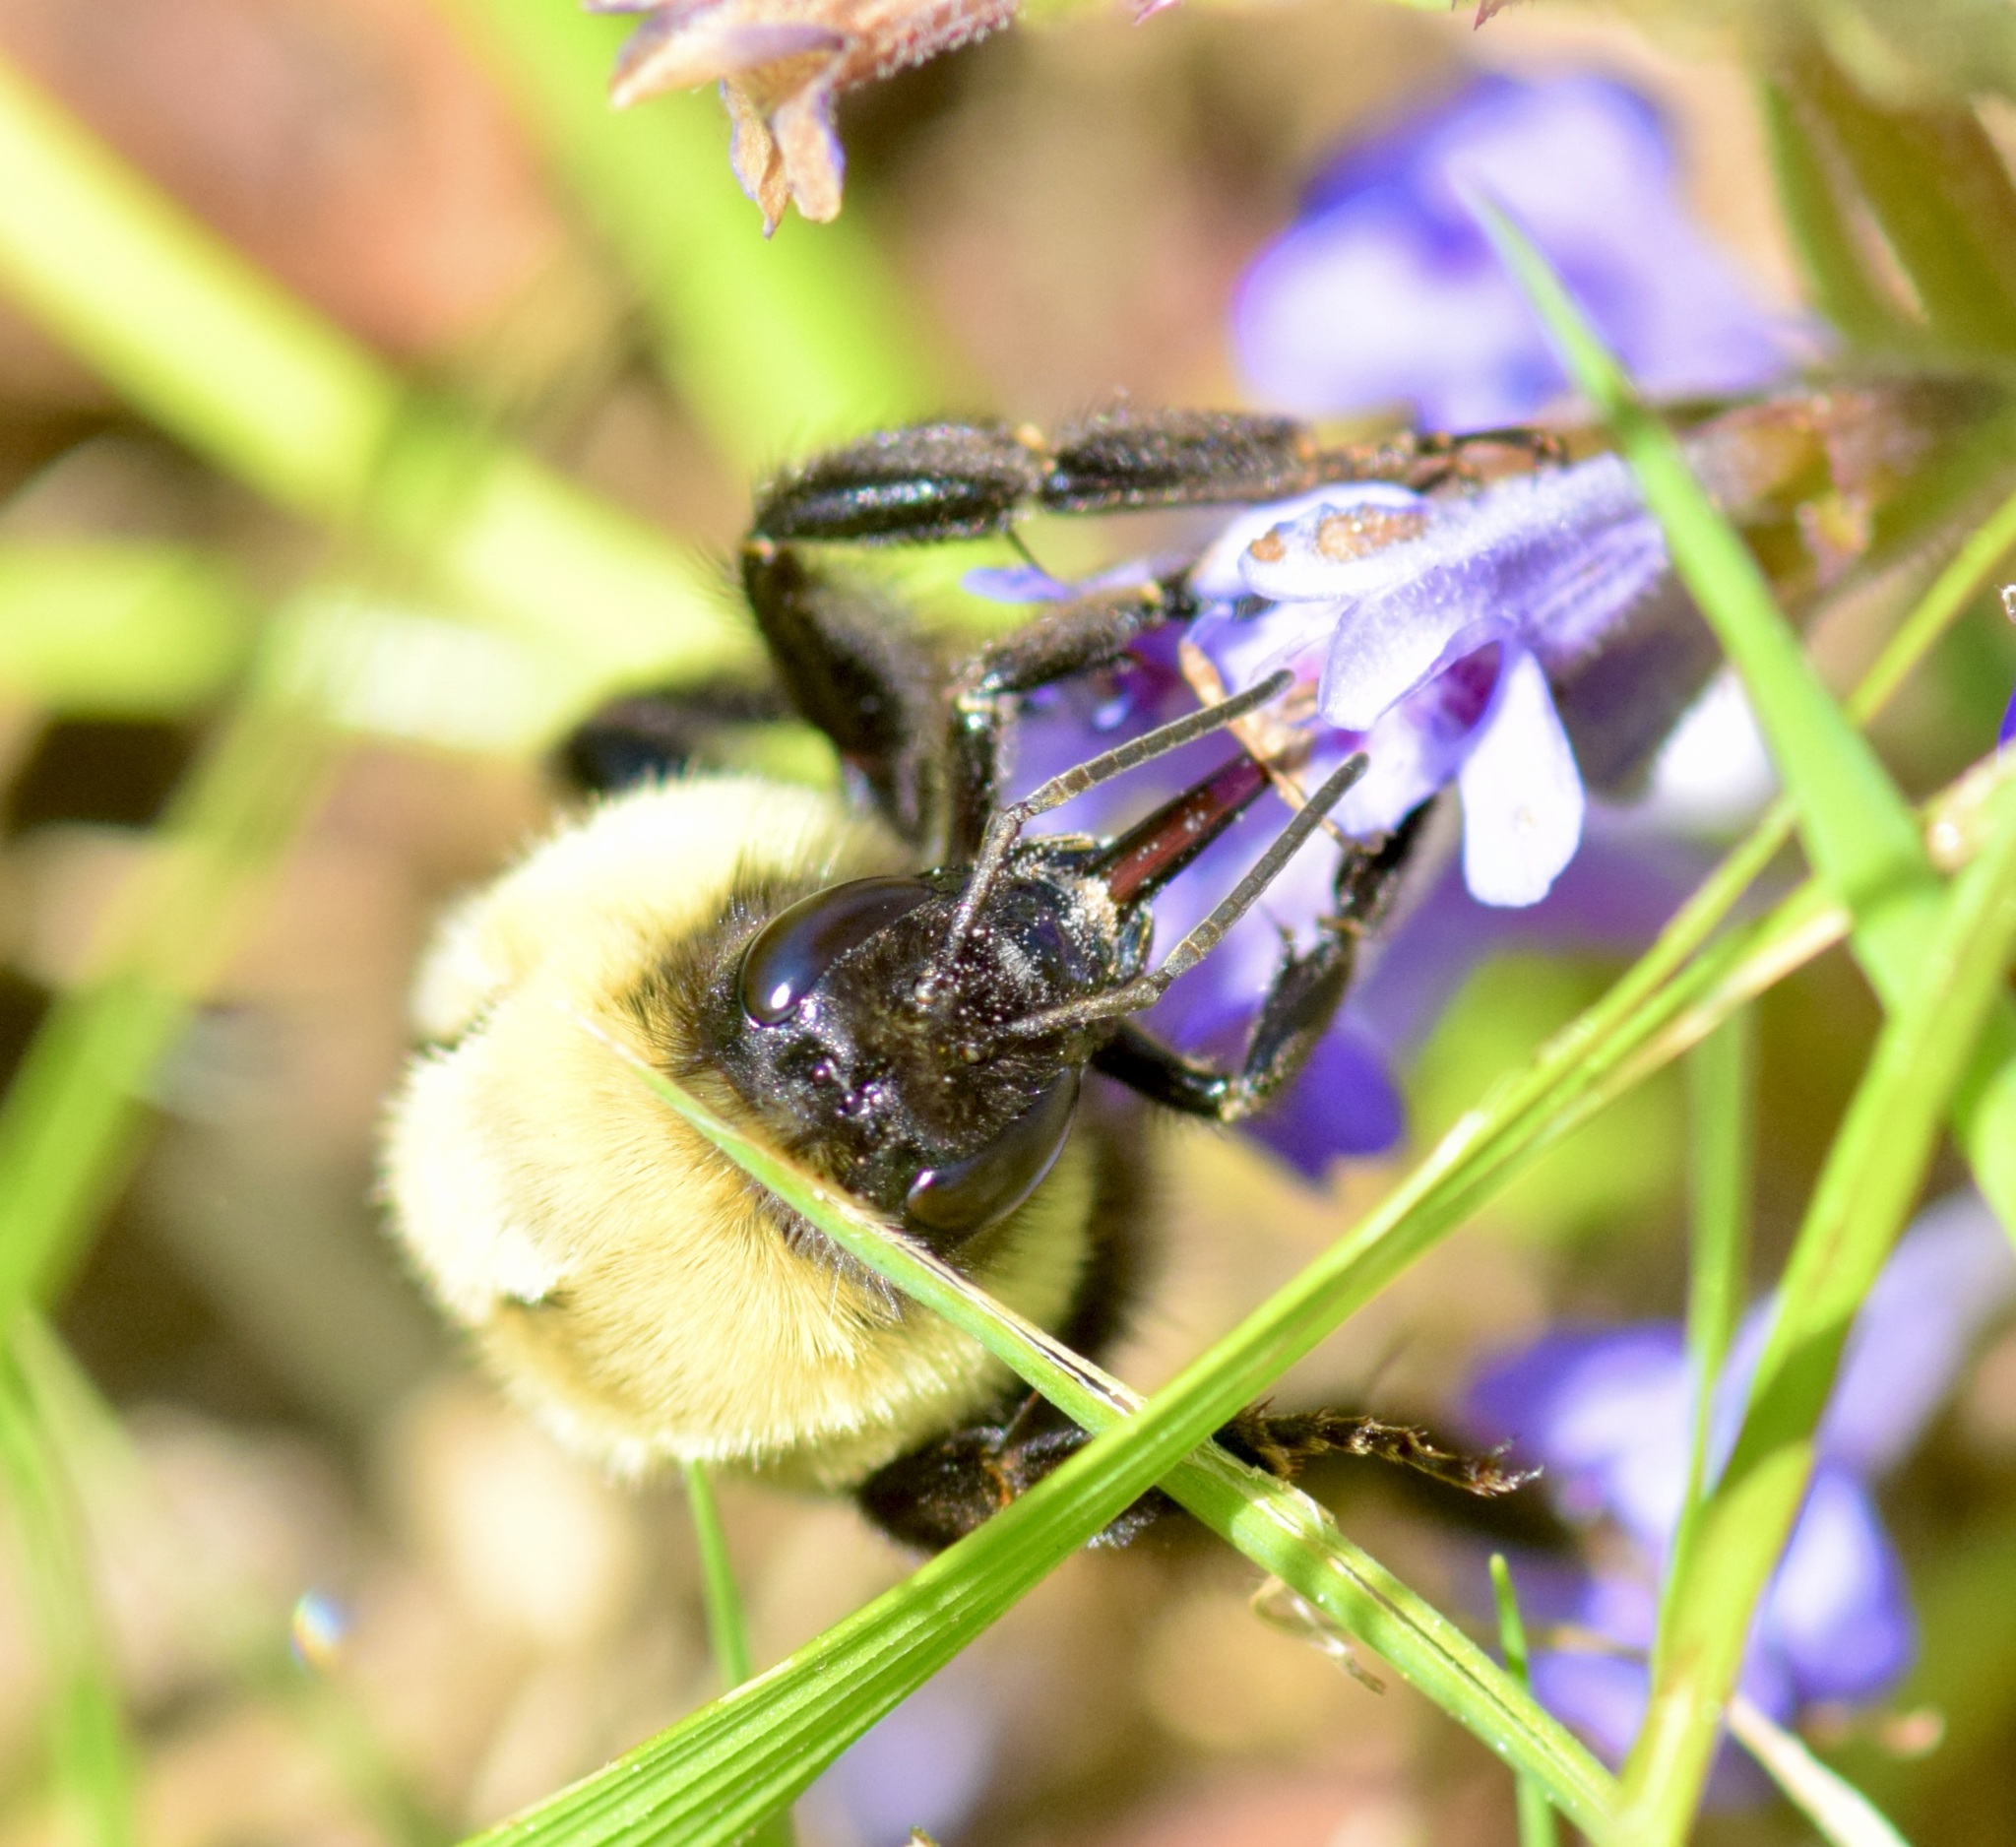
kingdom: Animalia
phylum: Arthropoda
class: Insecta
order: Hymenoptera
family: Apidae
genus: Bombus
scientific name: Bombus impatiens
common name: Common eastern bumble bee
